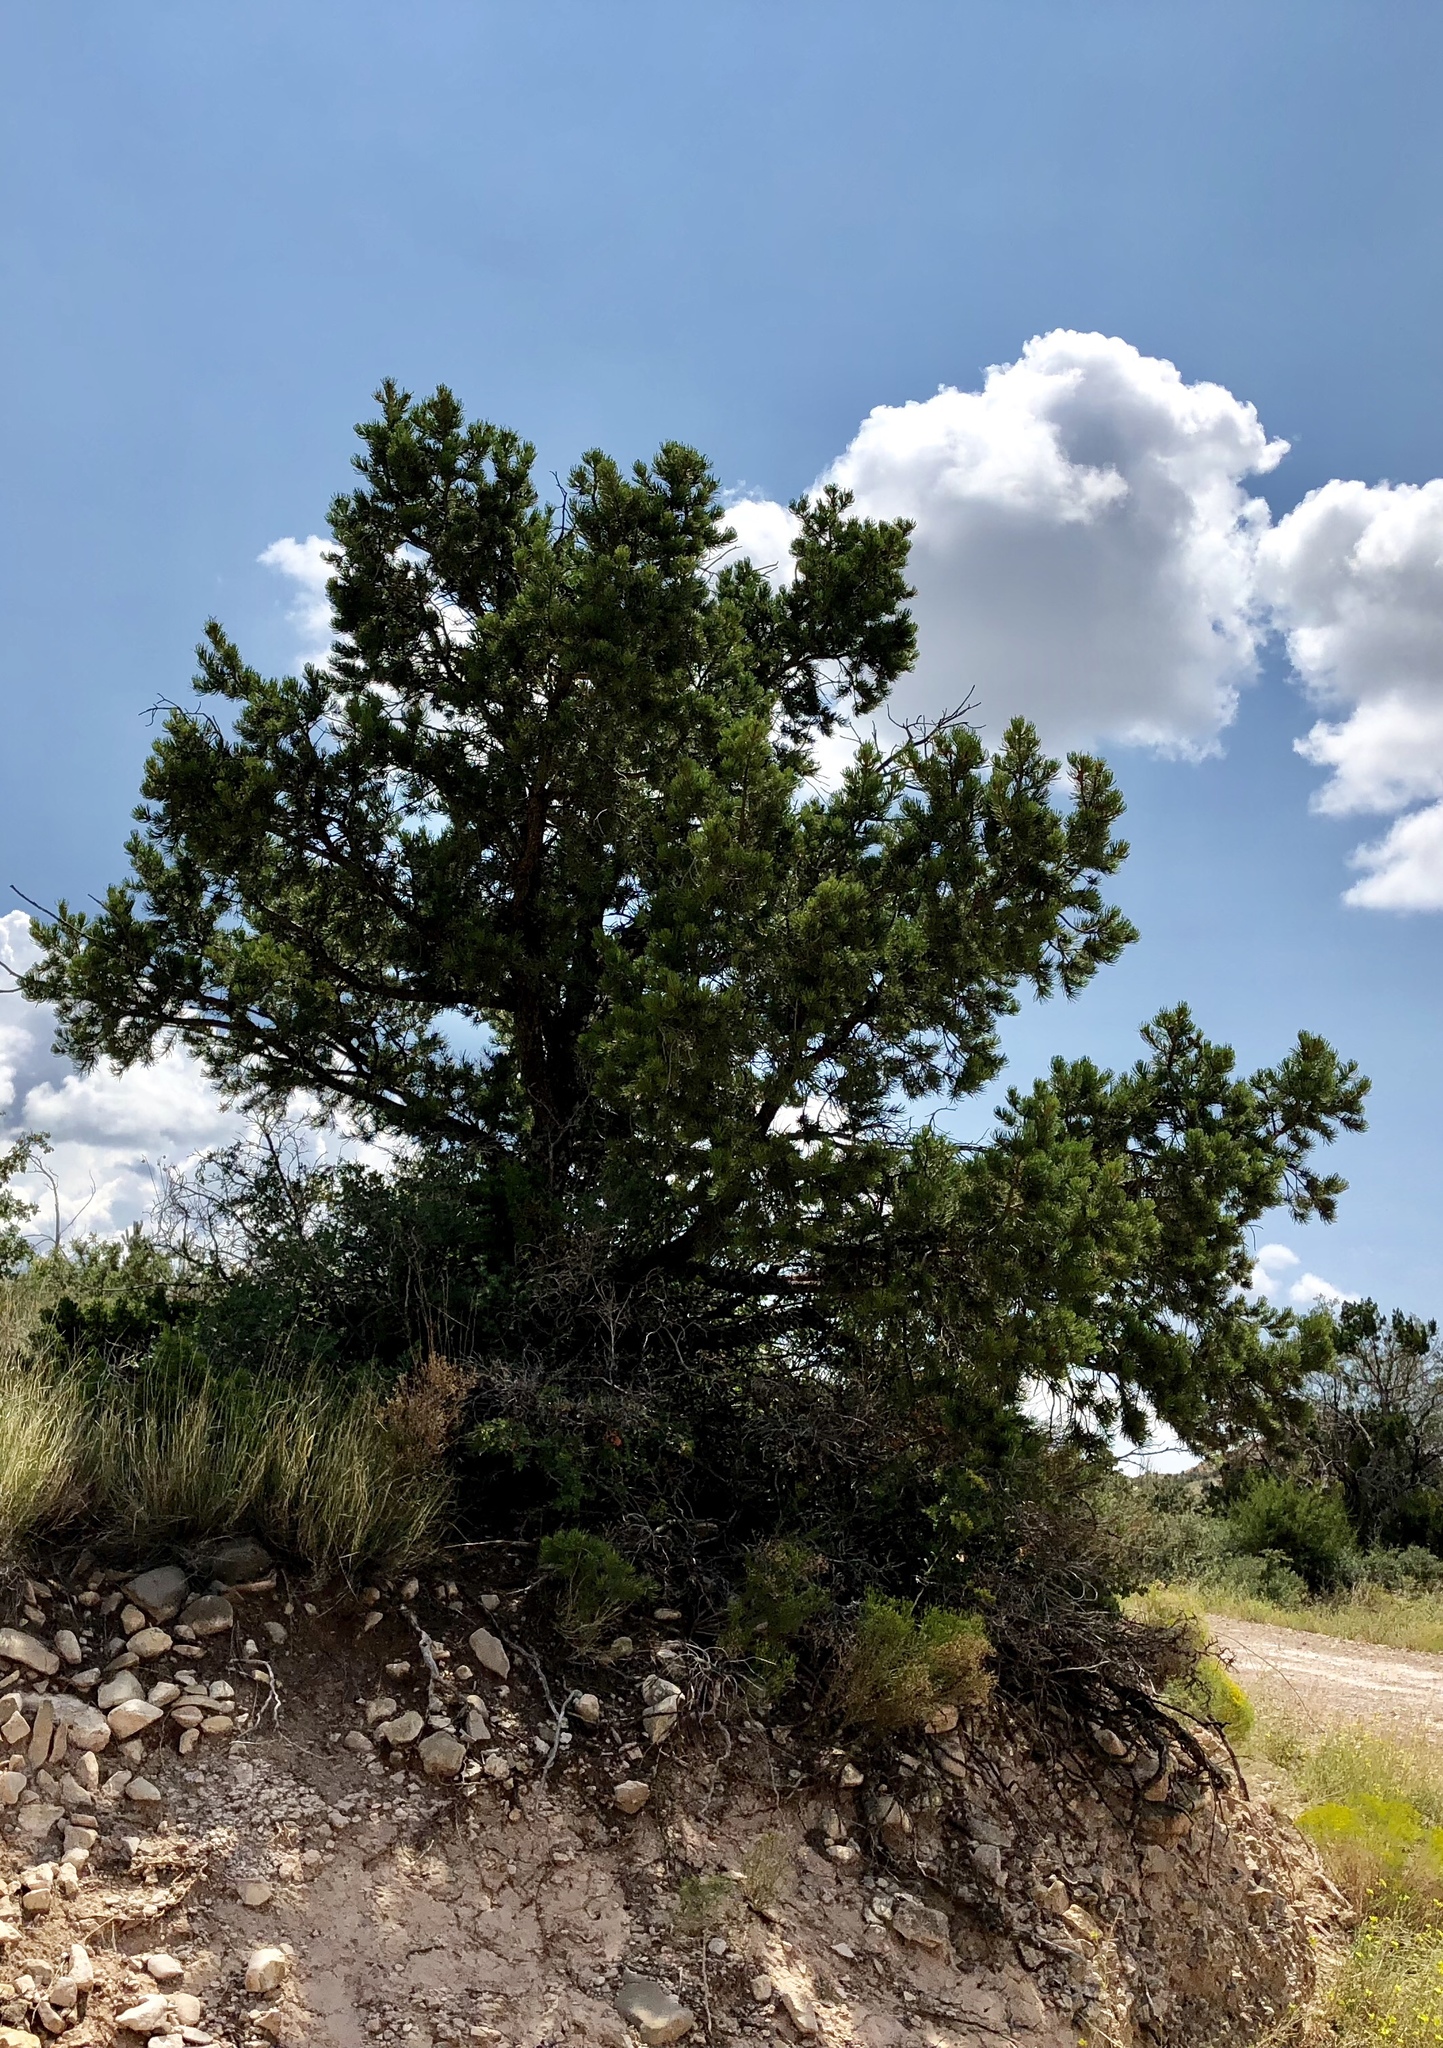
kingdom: Plantae
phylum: Tracheophyta
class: Pinopsida
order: Pinales
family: Pinaceae
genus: Pinus
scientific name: Pinus edulis
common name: Colorado pinyon
